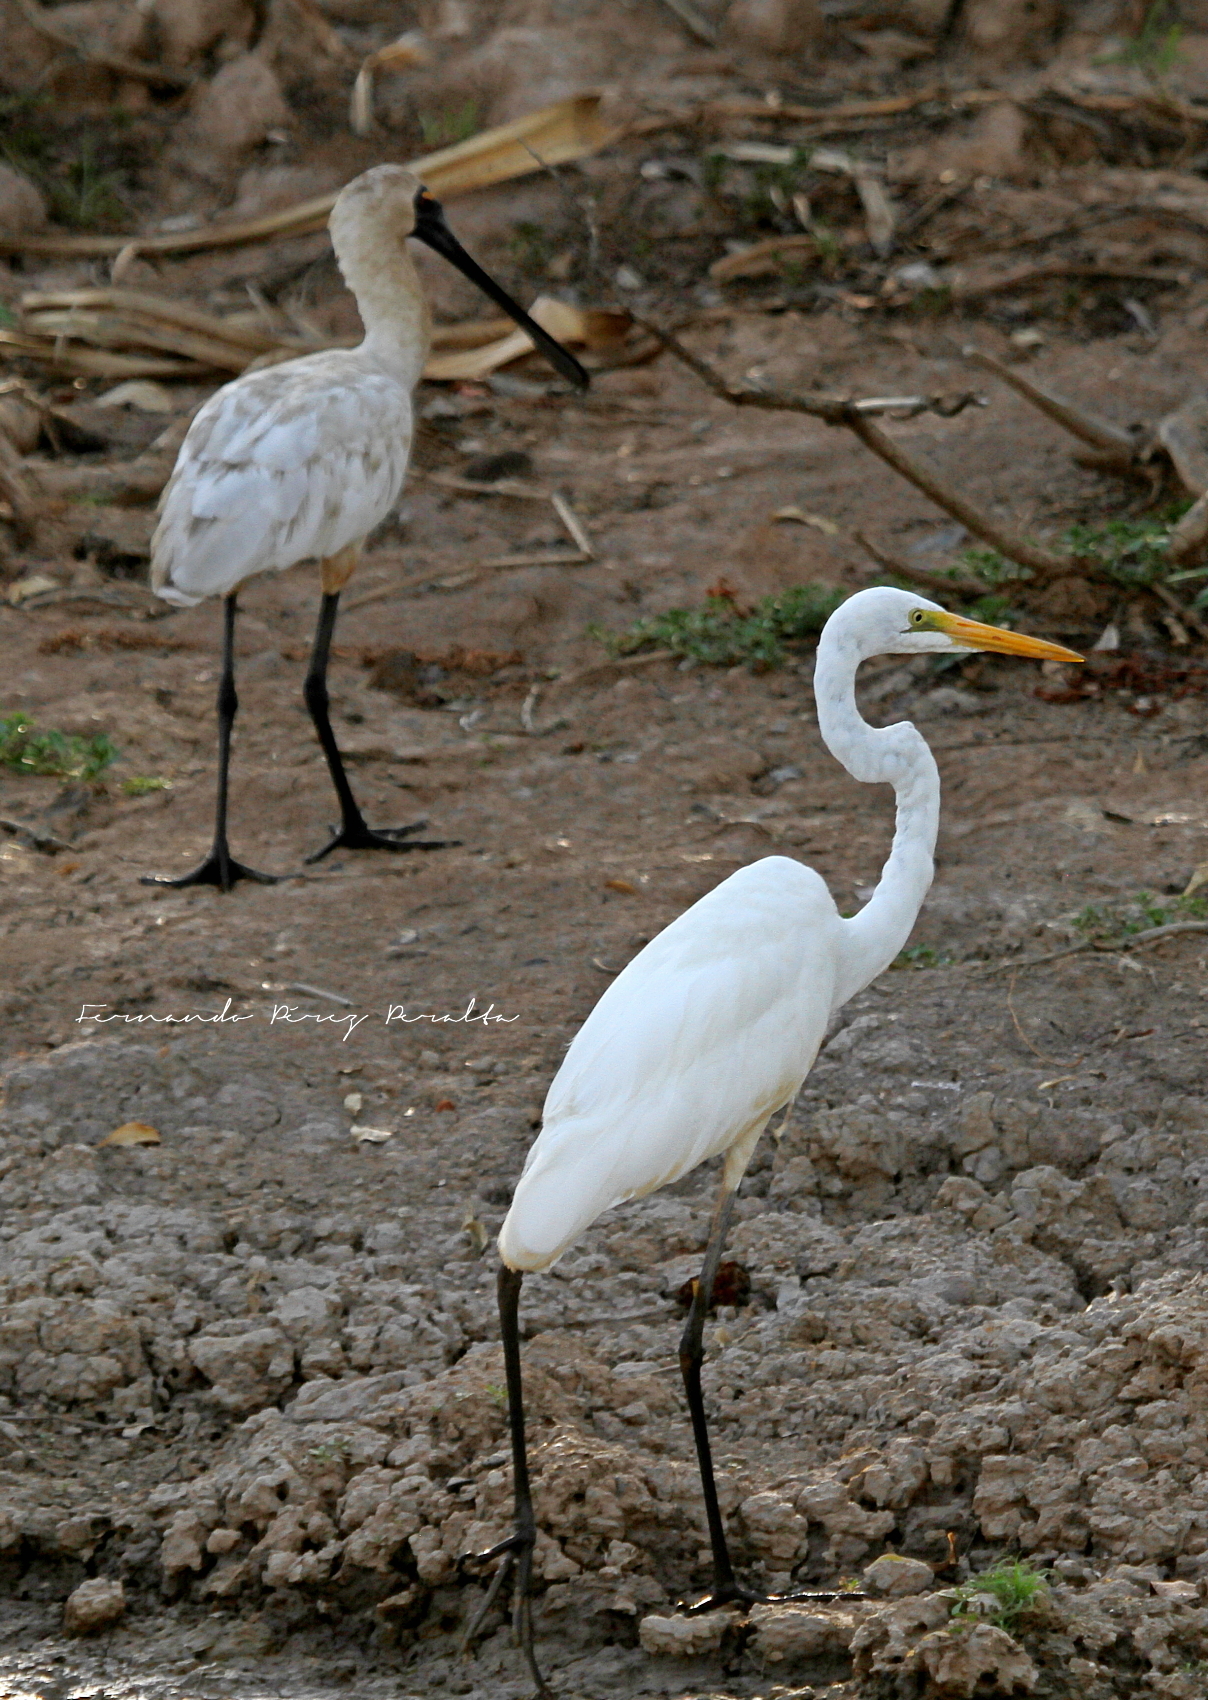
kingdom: Animalia
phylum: Chordata
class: Aves
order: Pelecaniformes
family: Ardeidae
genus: Ardea
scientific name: Ardea alba
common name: Great egret
